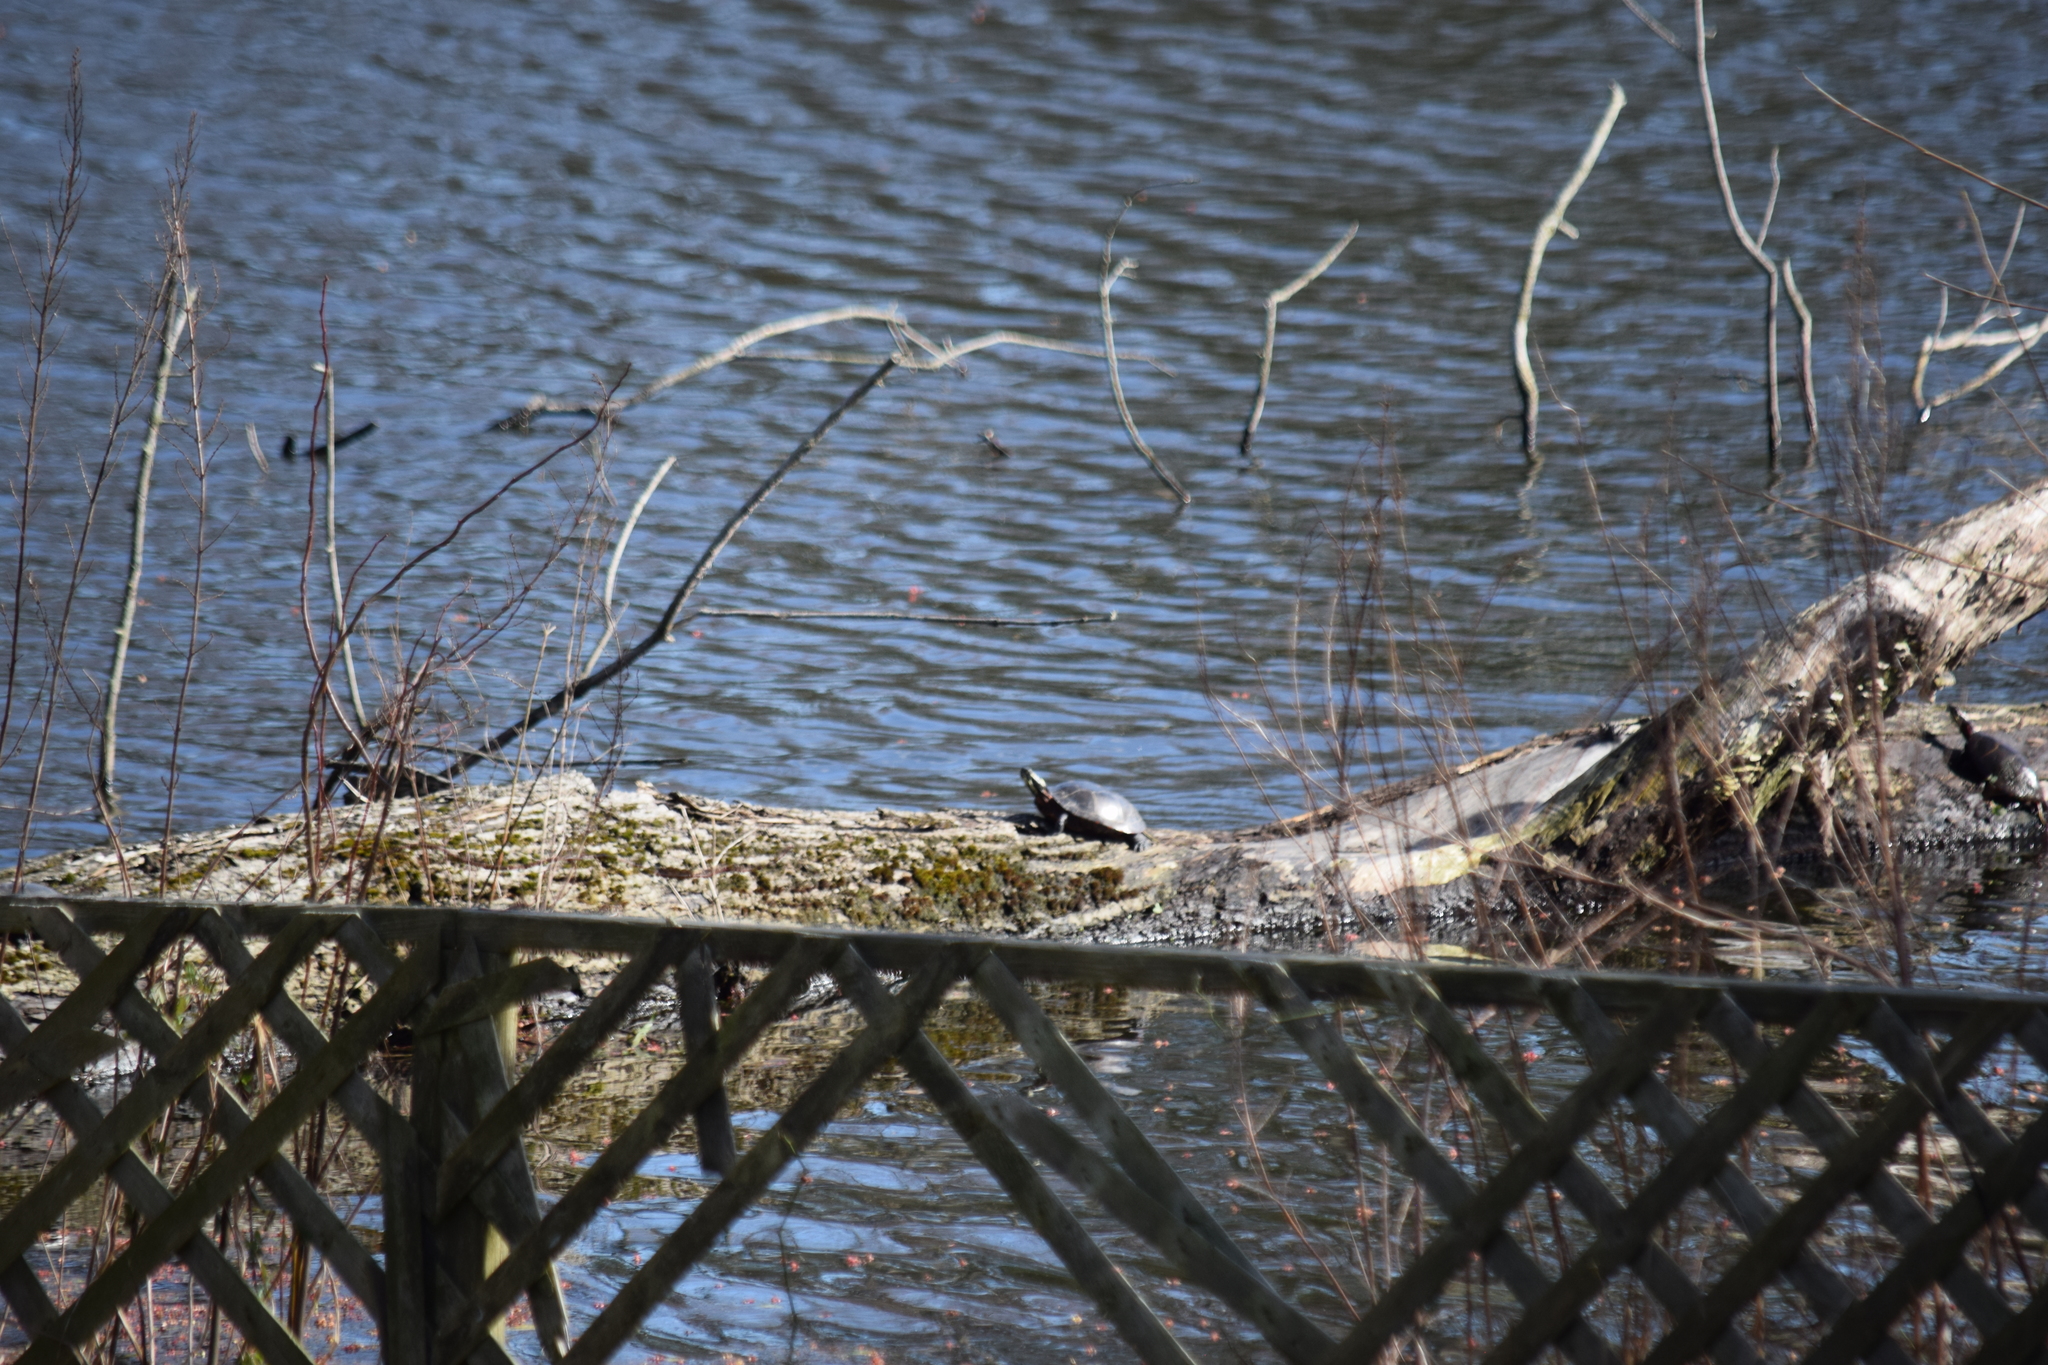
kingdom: Animalia
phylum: Chordata
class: Testudines
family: Emydidae
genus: Chrysemys
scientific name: Chrysemys picta
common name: Painted turtle
